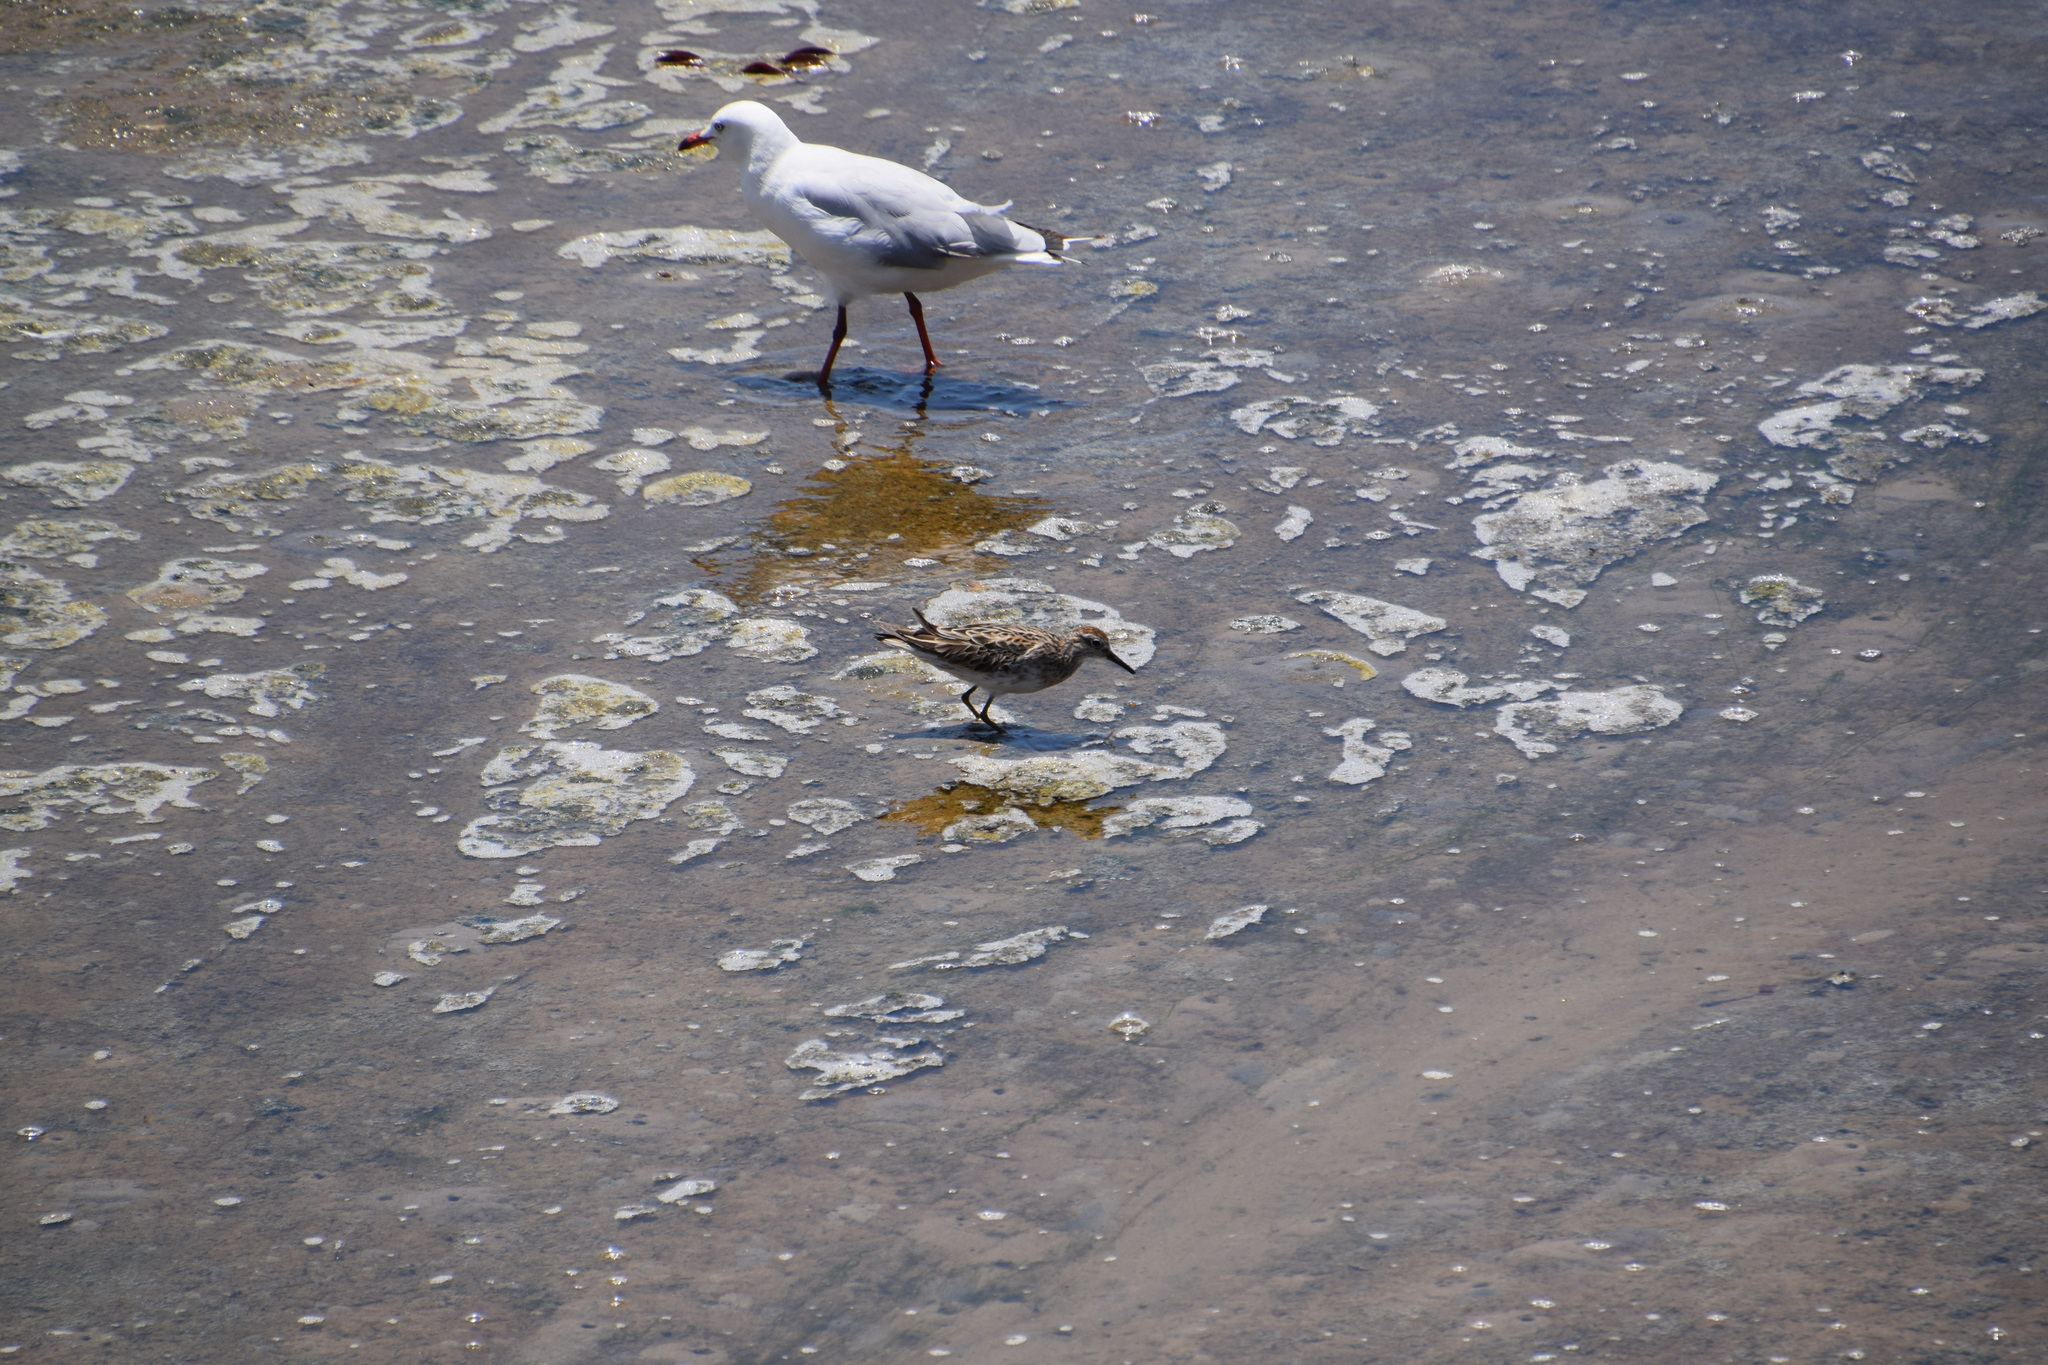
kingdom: Animalia
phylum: Chordata
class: Aves
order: Charadriiformes
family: Scolopacidae
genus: Calidris
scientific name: Calidris acuminata
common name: Sharp-tailed sandpiper
